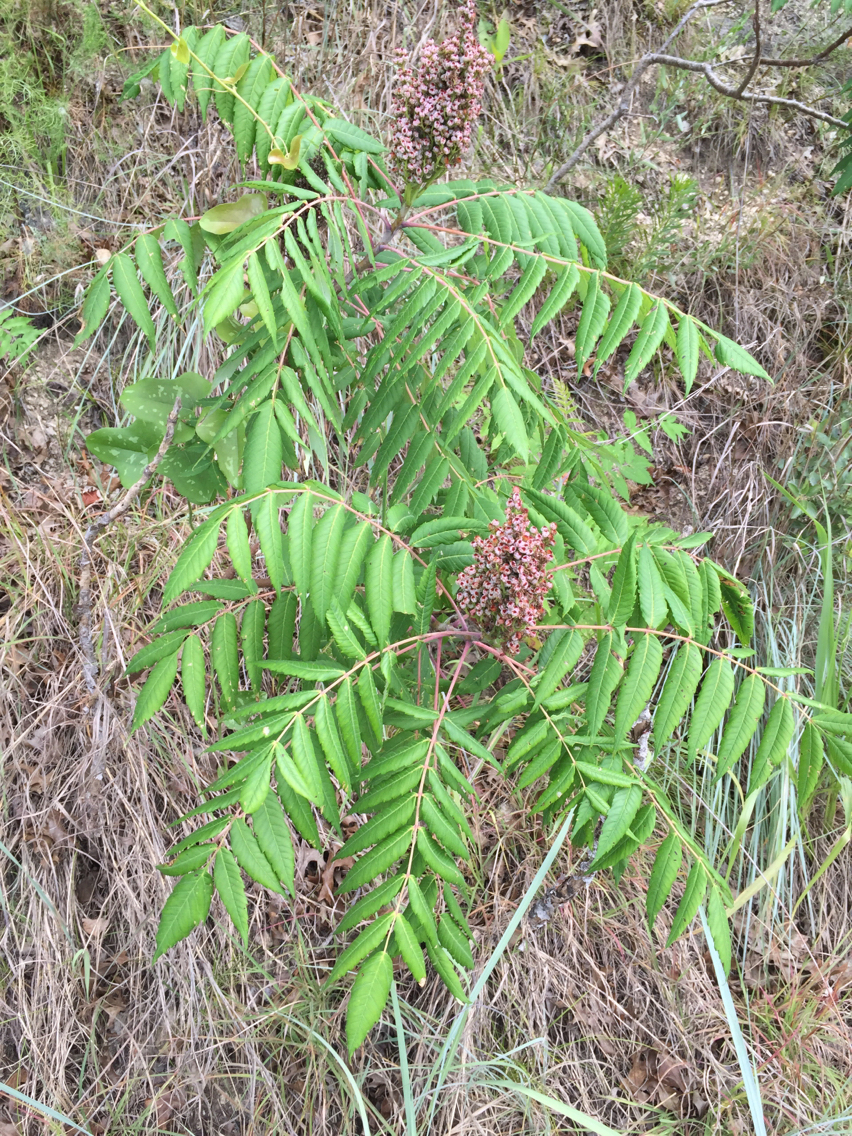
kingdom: Plantae
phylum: Tracheophyta
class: Magnoliopsida
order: Sapindales
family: Anacardiaceae
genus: Rhus
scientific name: Rhus glabra
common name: Scarlet sumac
